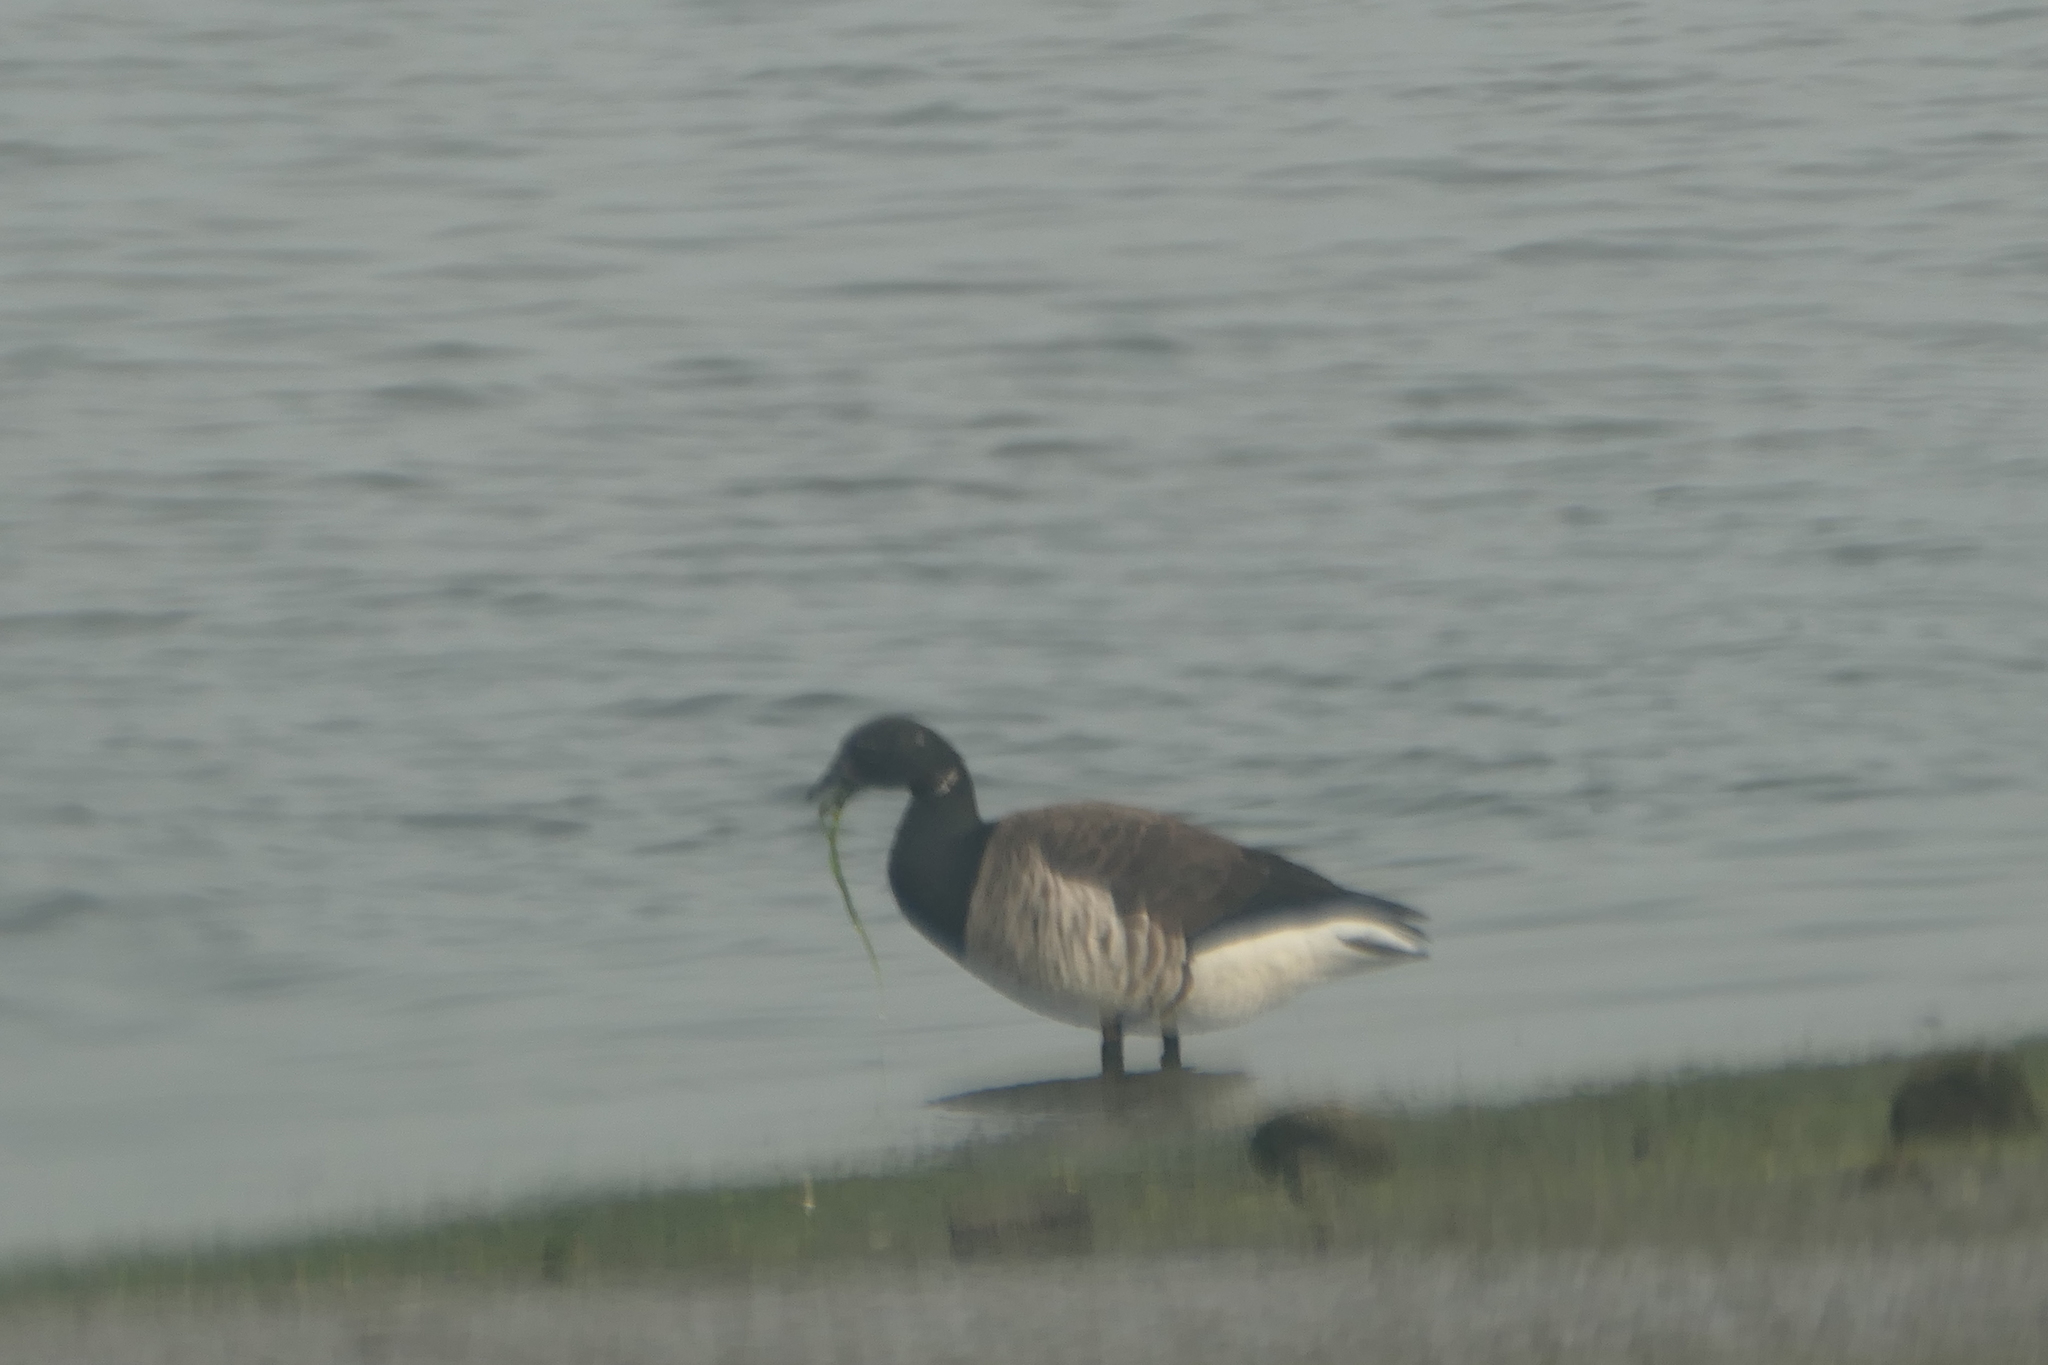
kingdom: Animalia
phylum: Chordata
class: Aves
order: Anseriformes
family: Anatidae
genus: Branta
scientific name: Branta bernicla
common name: Brant goose
